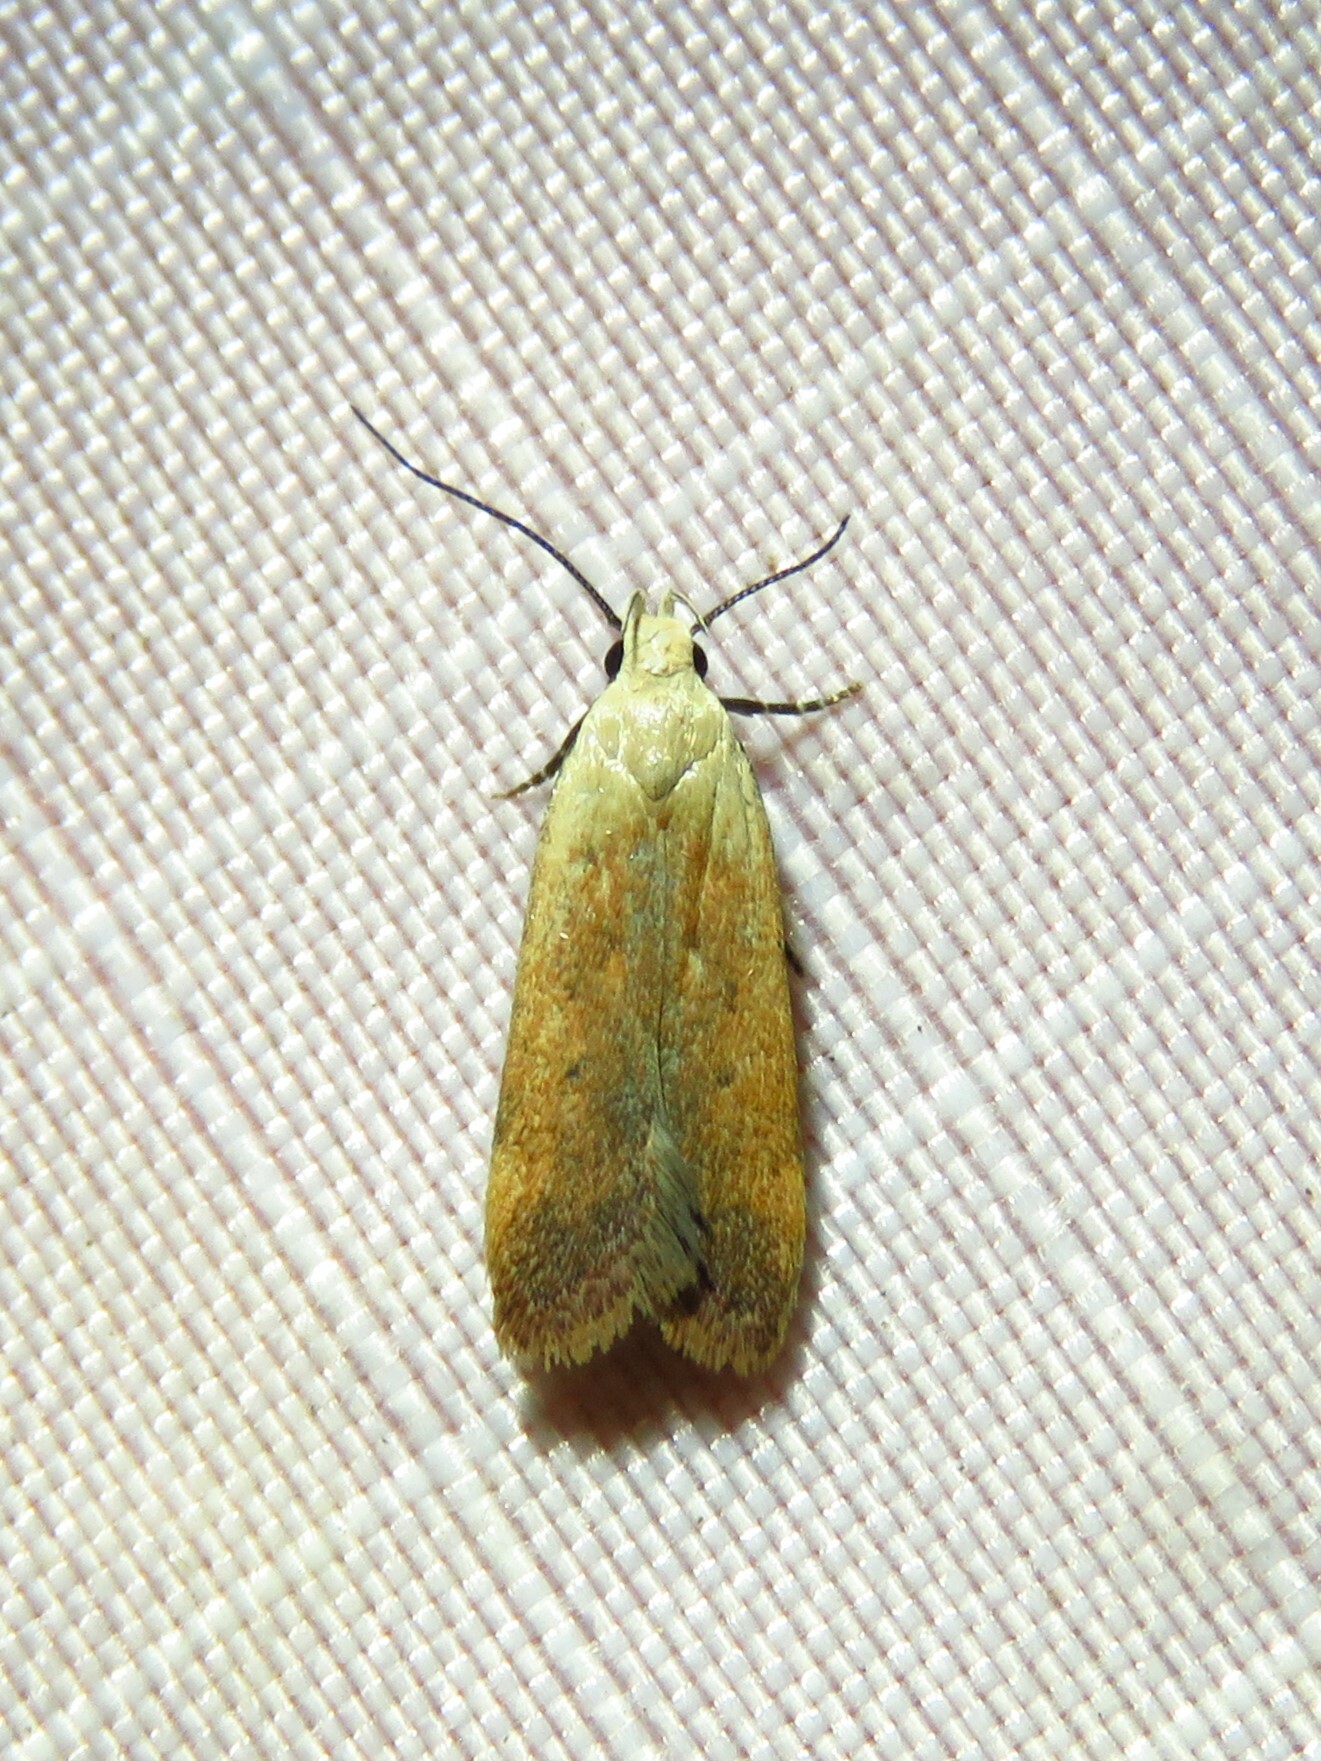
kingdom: Animalia
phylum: Arthropoda
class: Insecta
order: Lepidoptera
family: Gelechiidae
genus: Anacampsis
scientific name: Anacampsis fullonella
